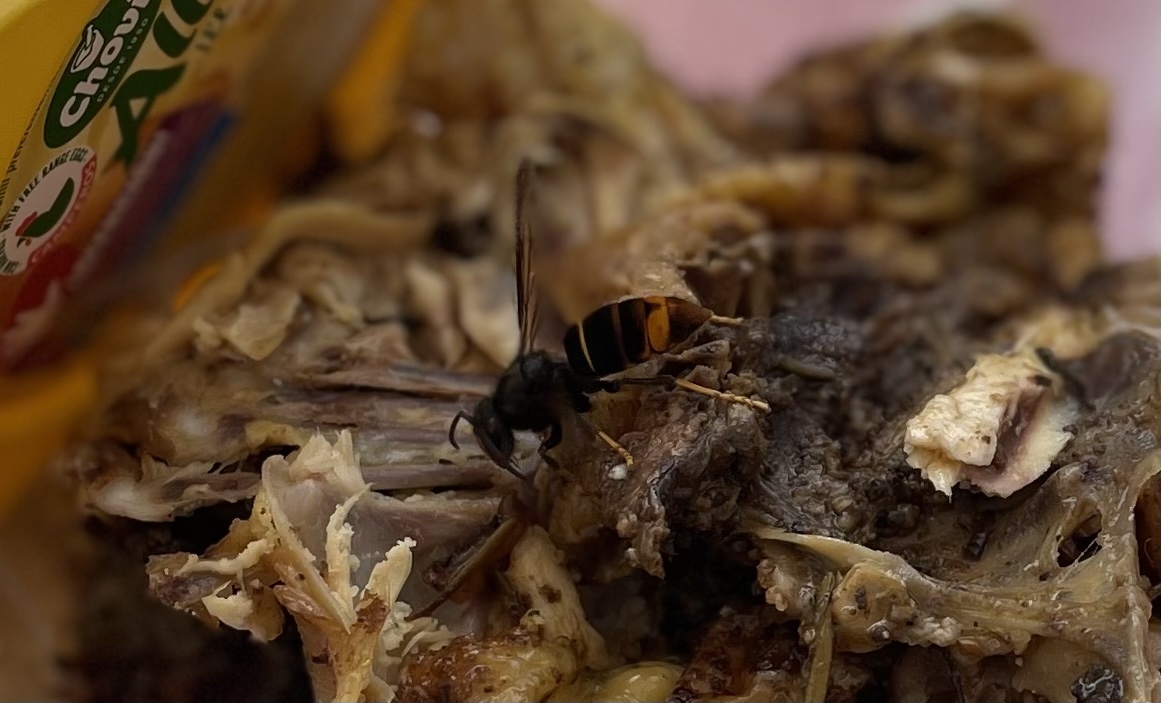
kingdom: Animalia
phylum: Arthropoda
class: Insecta
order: Hymenoptera
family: Vespidae
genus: Vespa
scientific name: Vespa velutina
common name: Asian hornet
